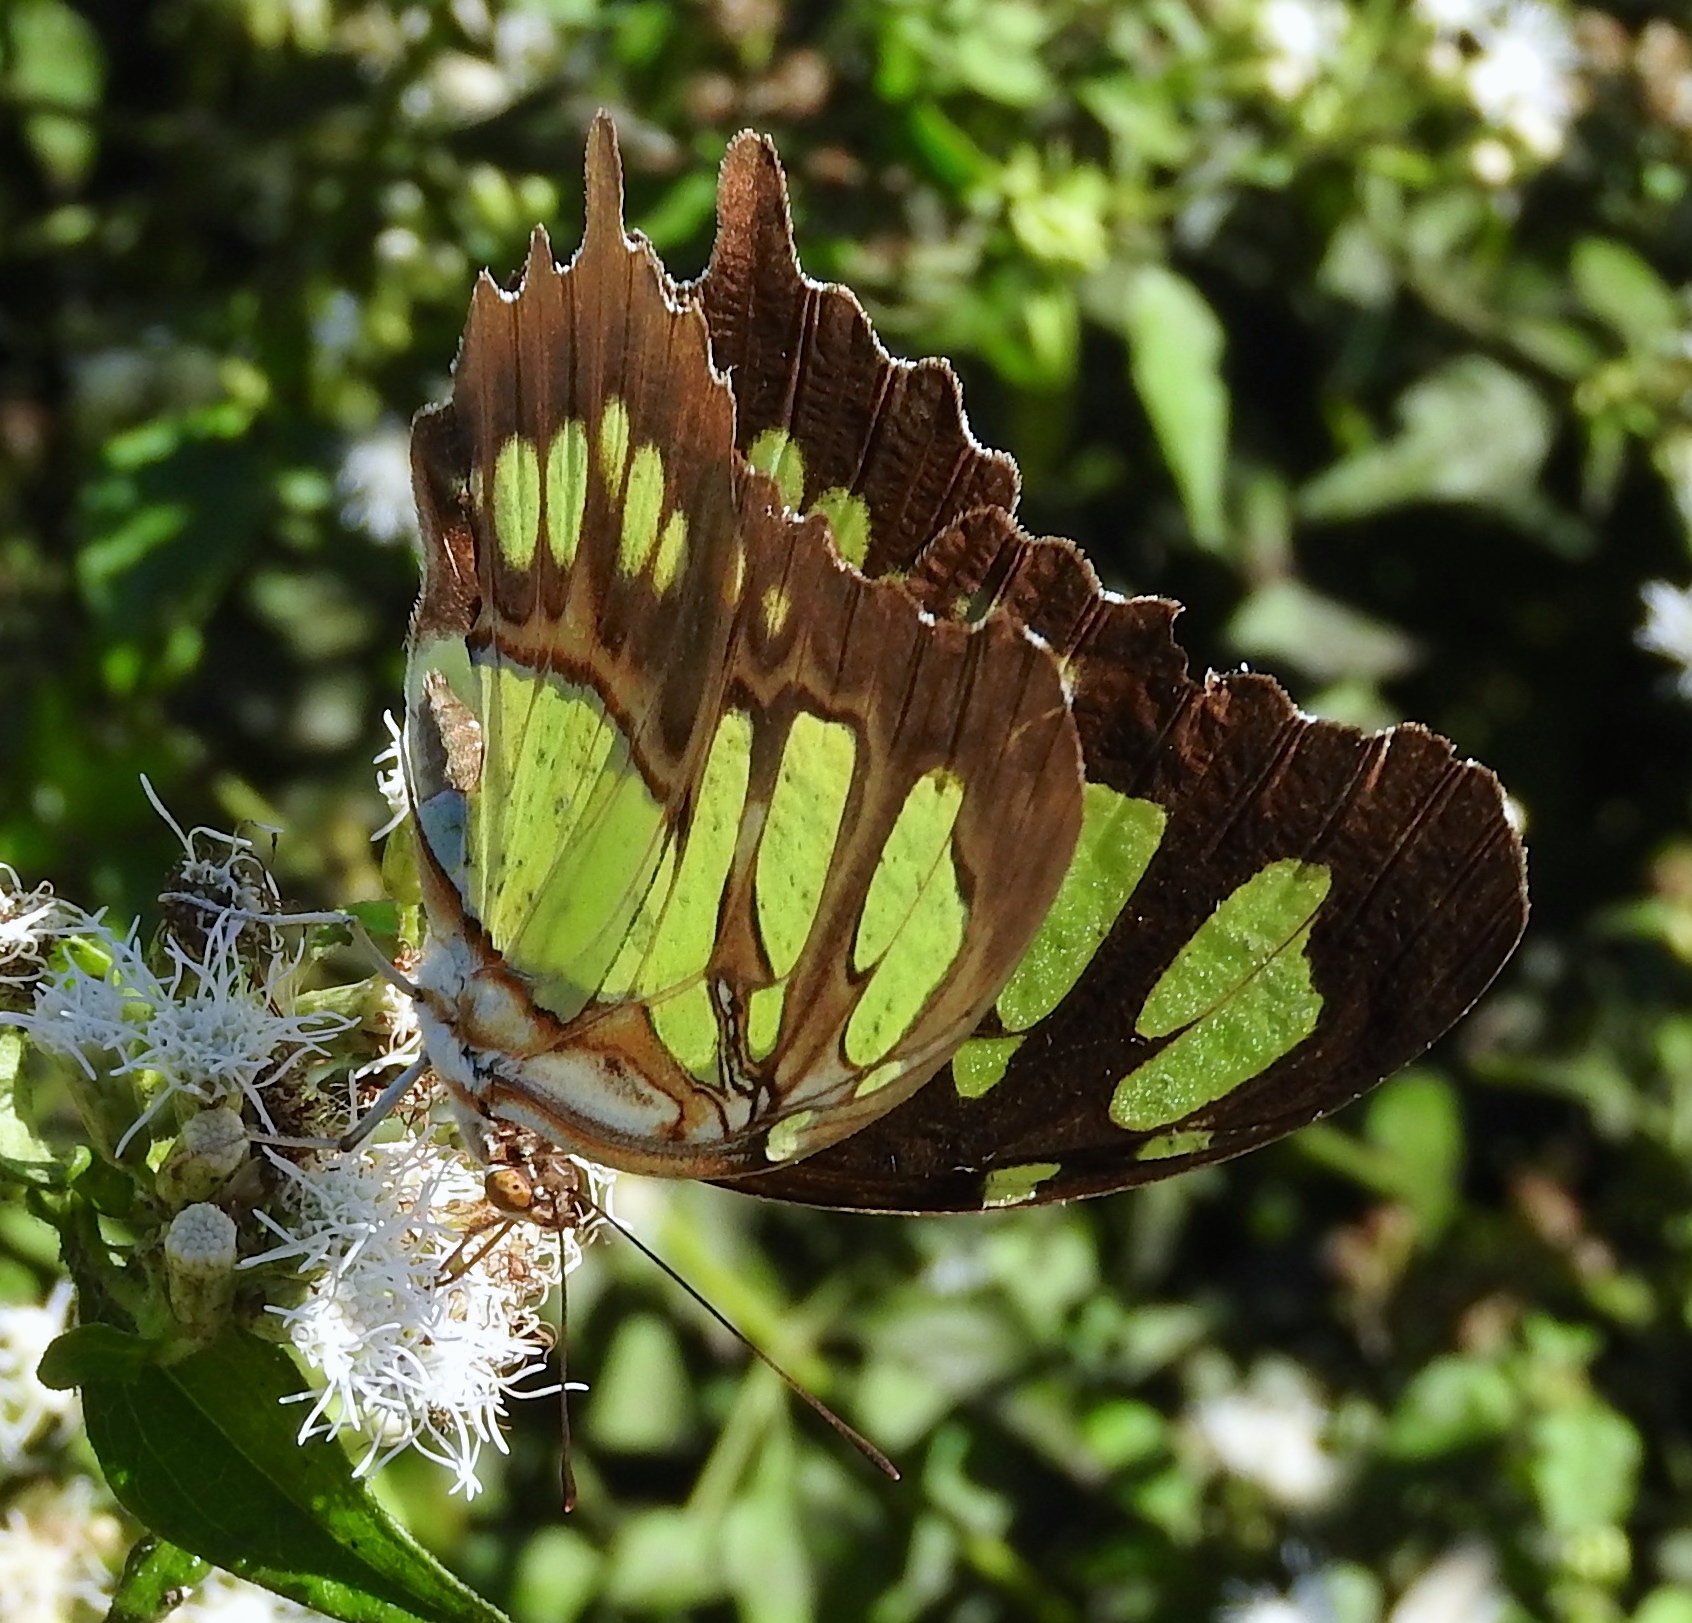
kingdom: Animalia
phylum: Arthropoda
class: Insecta
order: Lepidoptera
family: Nymphalidae
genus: Siproeta
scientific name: Siproeta stelenes
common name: Malachite
